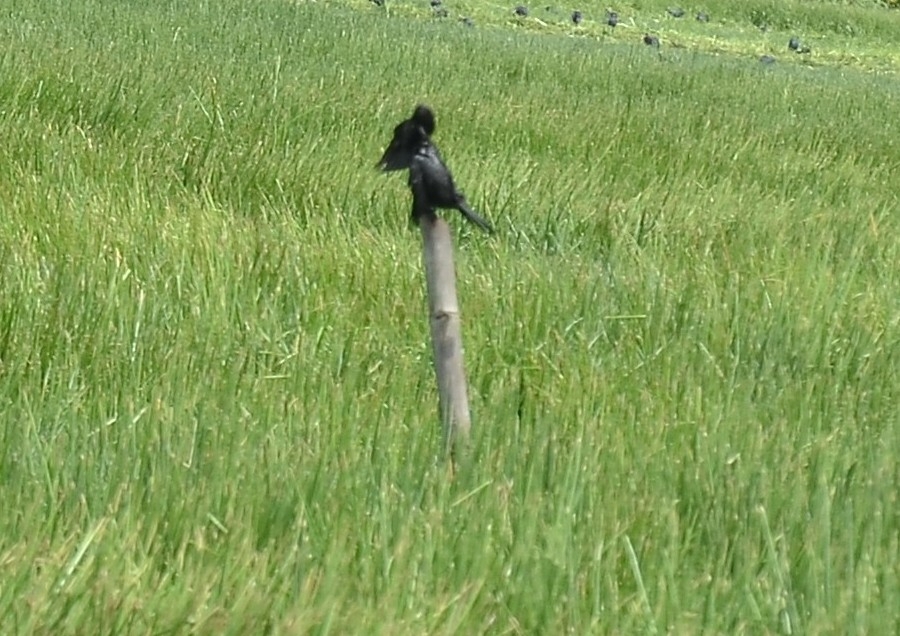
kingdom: Animalia
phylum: Chordata
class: Aves
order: Suliformes
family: Phalacrocoracidae
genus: Microcarbo
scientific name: Microcarbo niger
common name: Little cormorant
